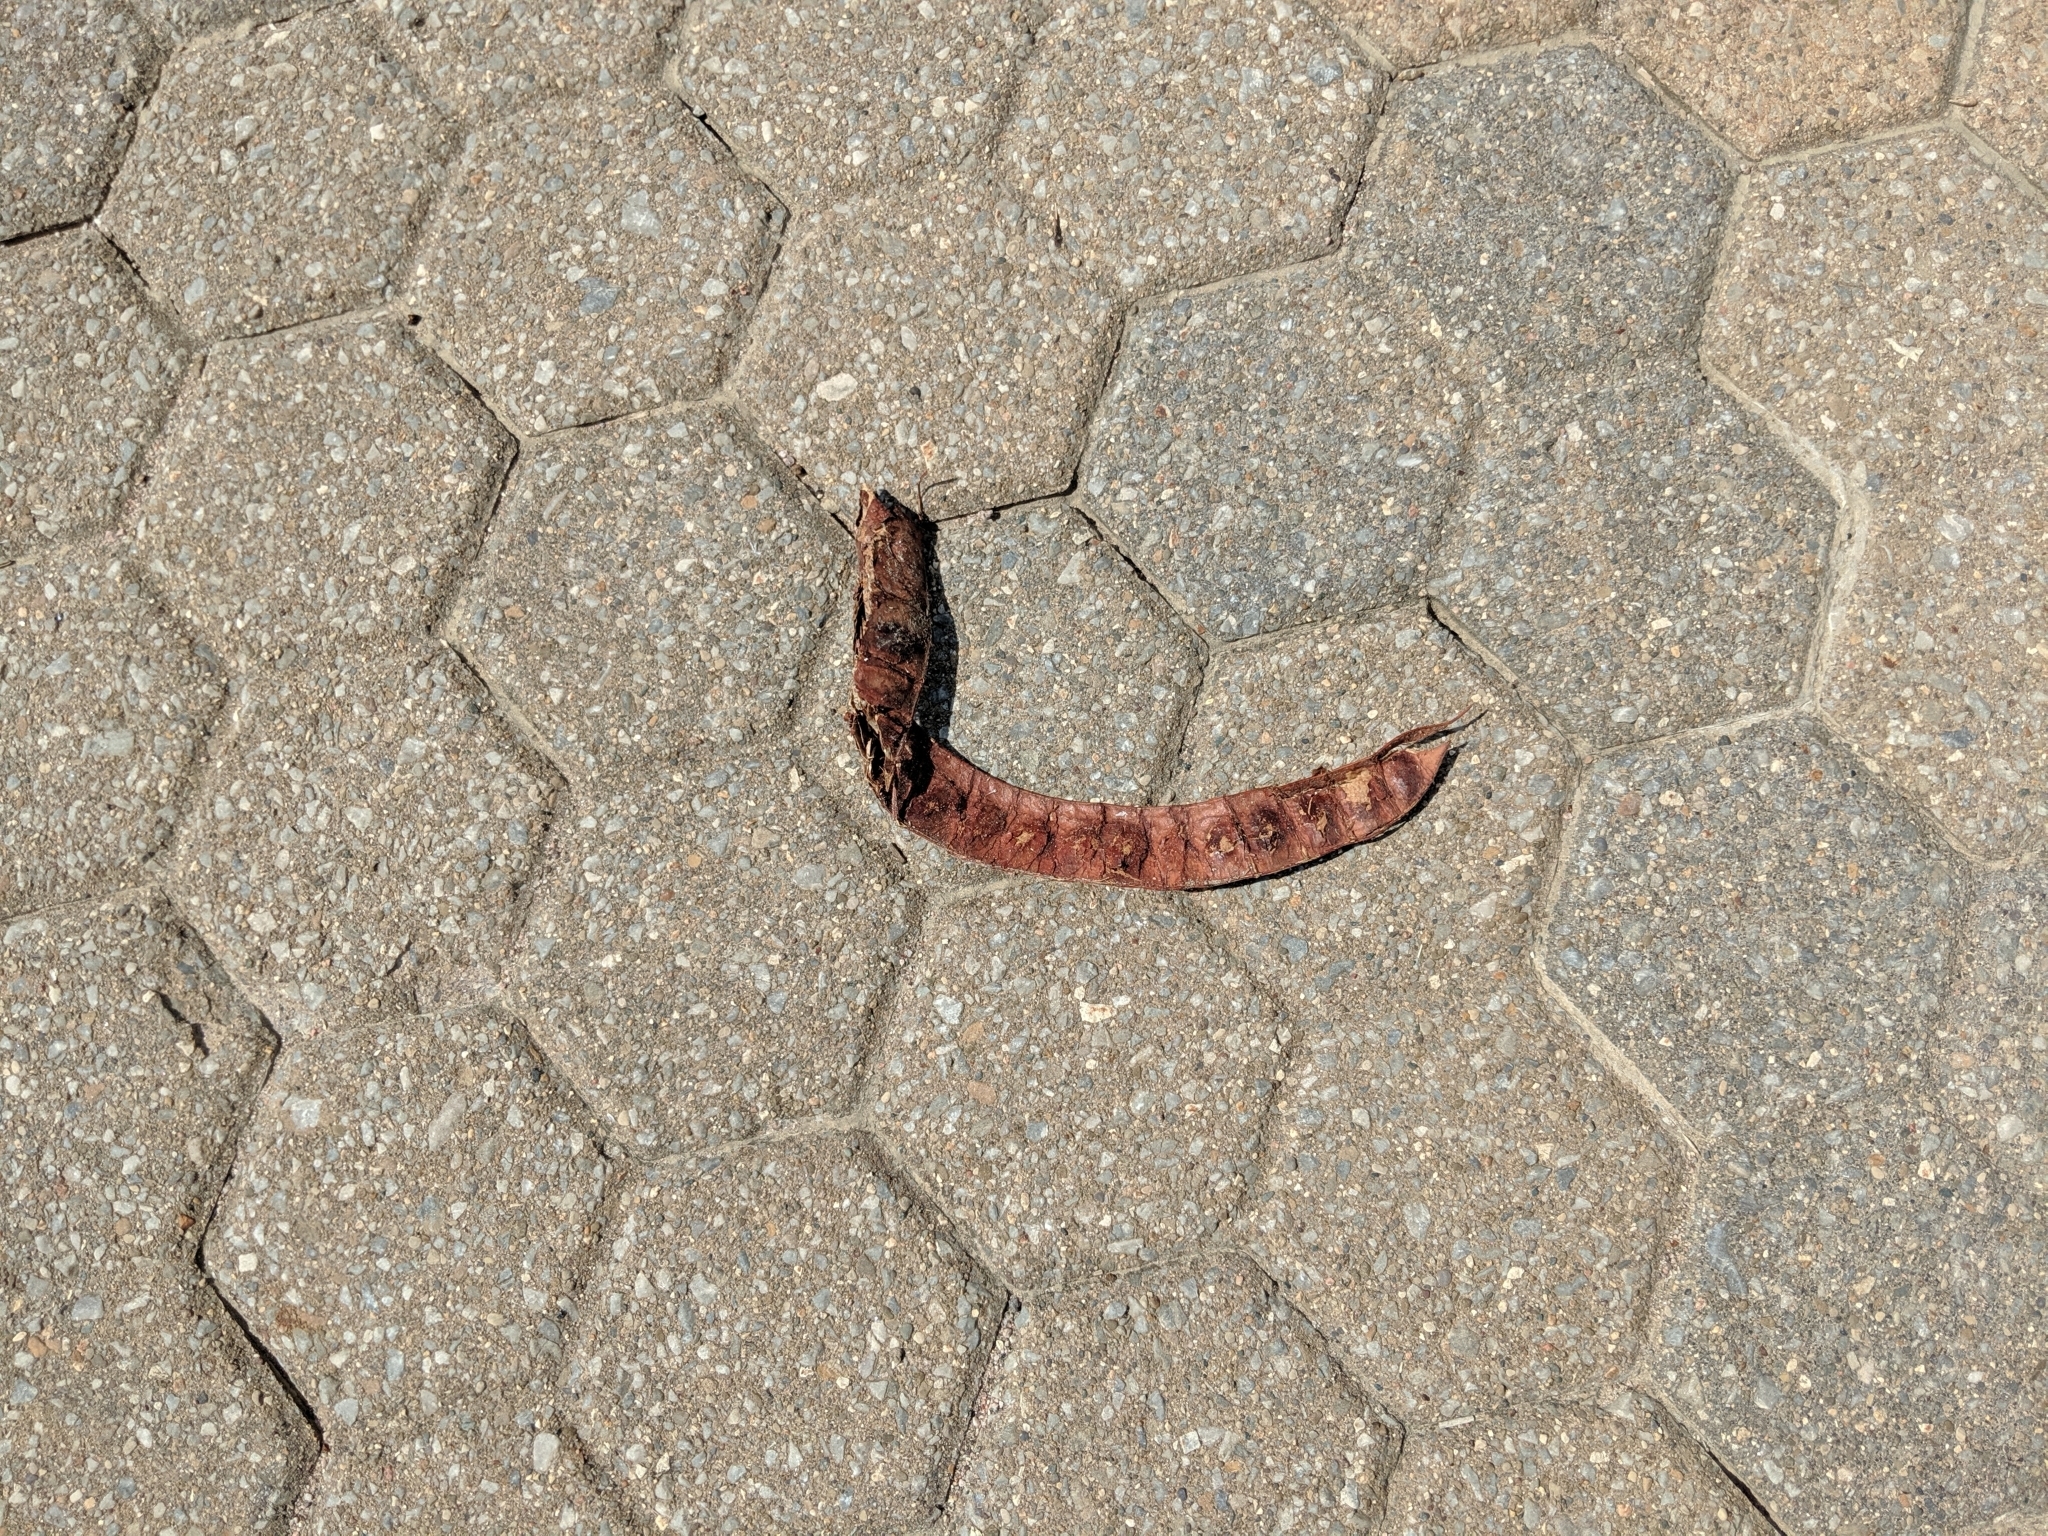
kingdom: Plantae
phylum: Tracheophyta
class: Magnoliopsida
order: Fabales
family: Fabaceae
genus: Gleditsia
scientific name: Gleditsia triacanthos
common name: Common honeylocust
